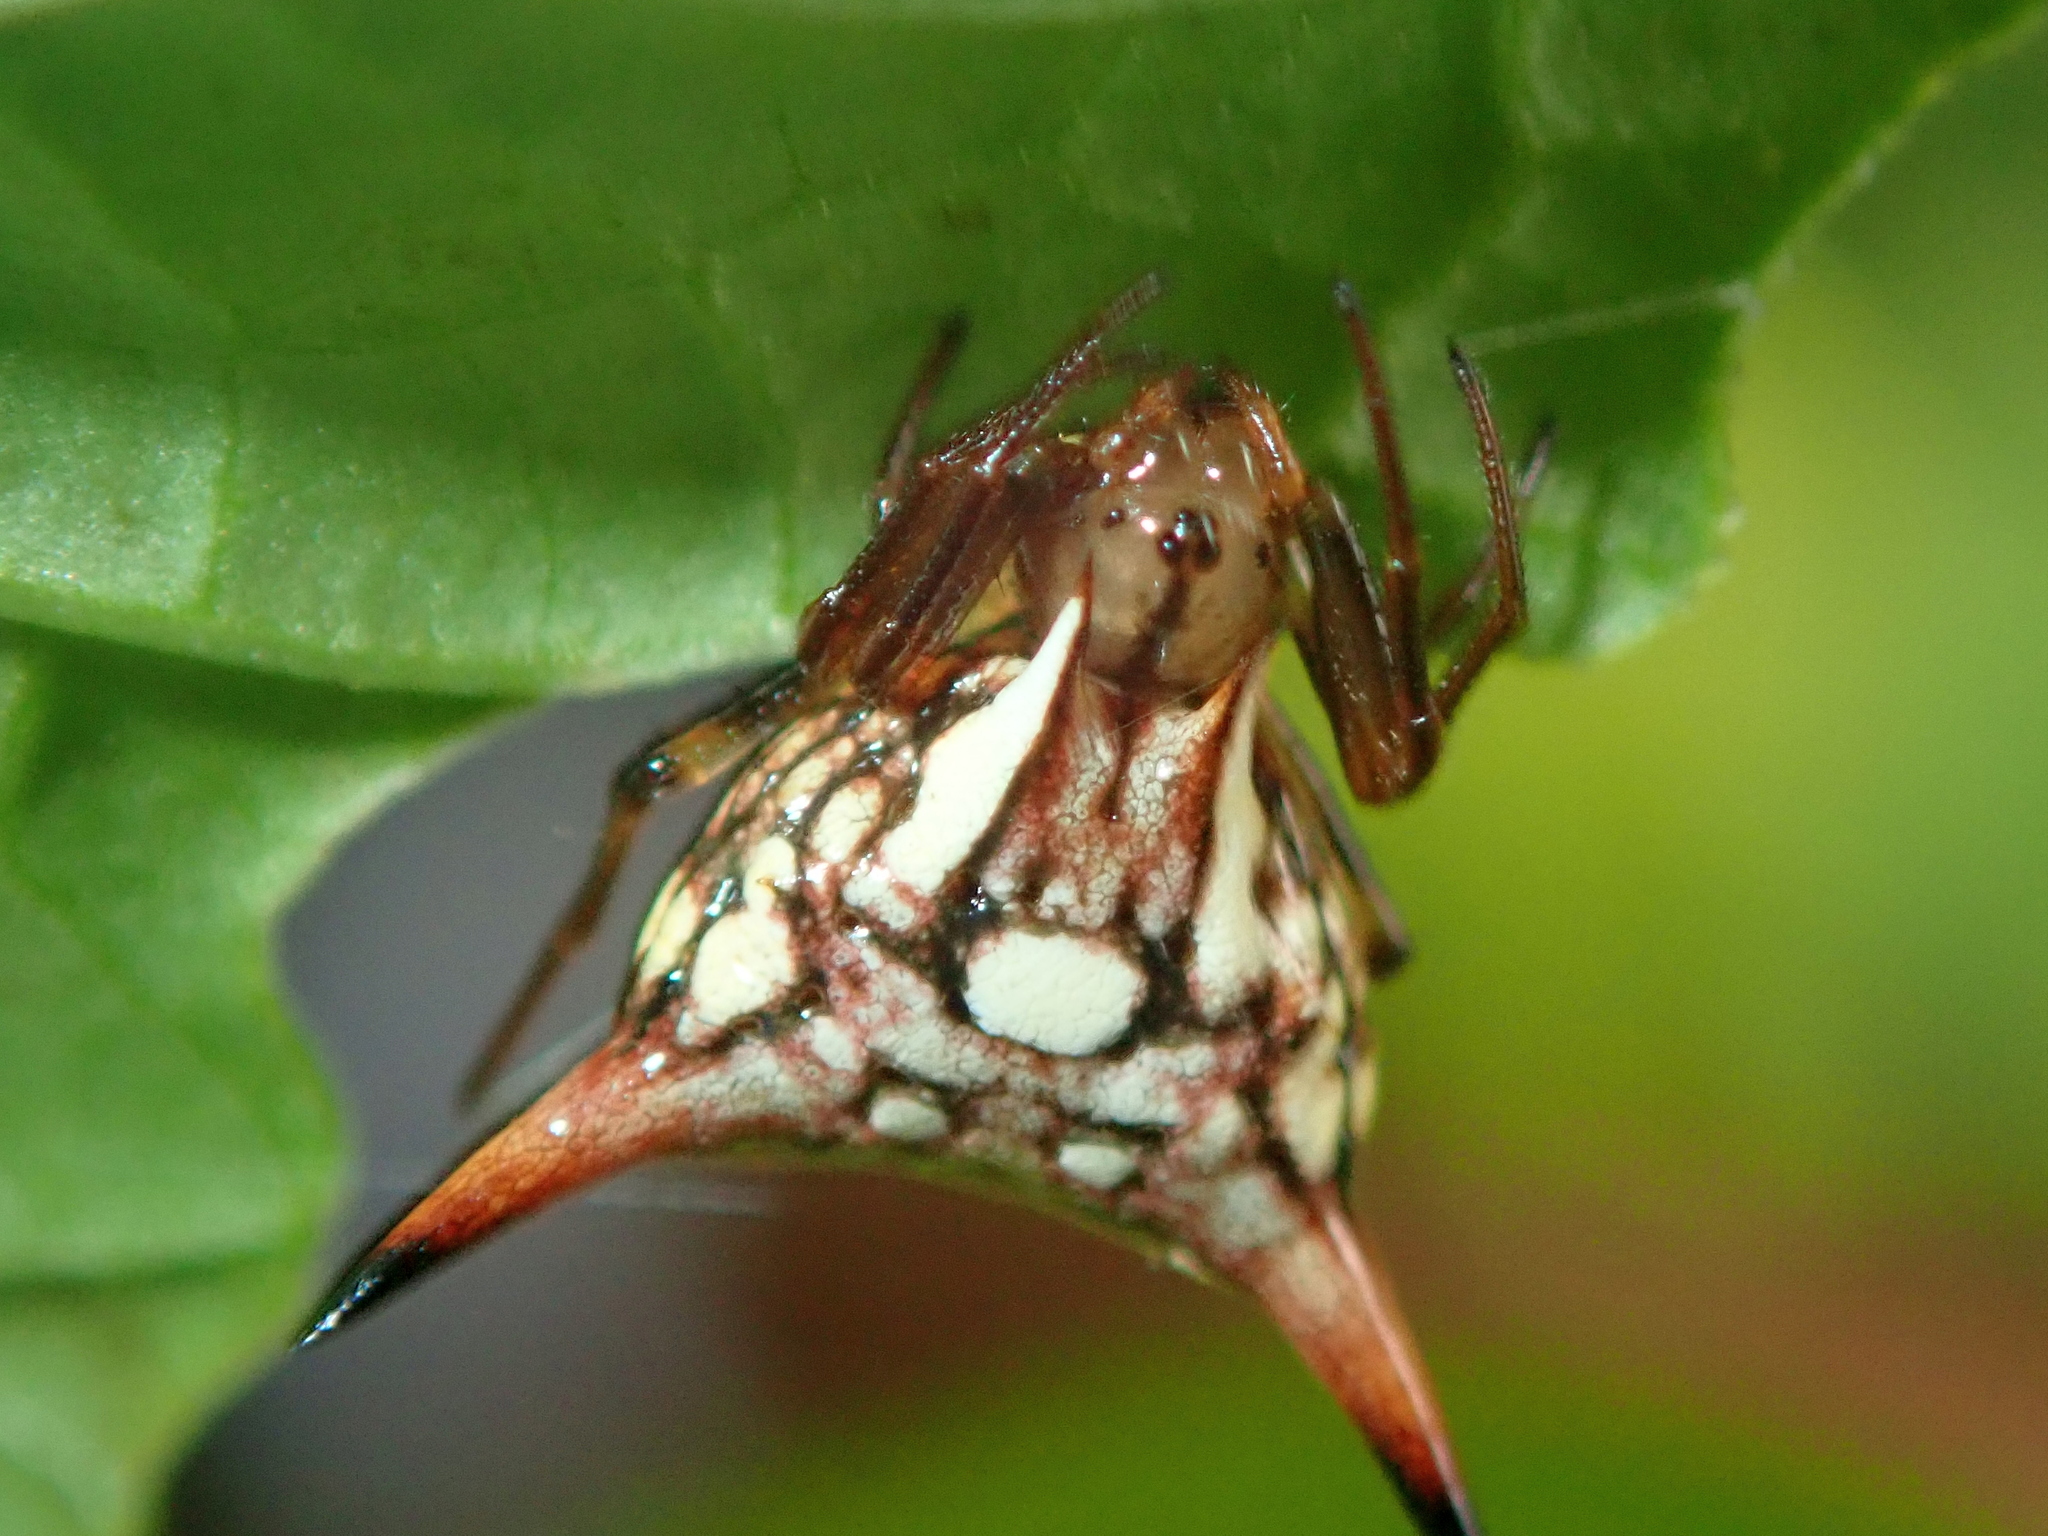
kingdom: Animalia
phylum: Arthropoda
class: Arachnida
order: Araneae
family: Araneidae
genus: Micrathena
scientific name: Micrathena peregrinatorum
